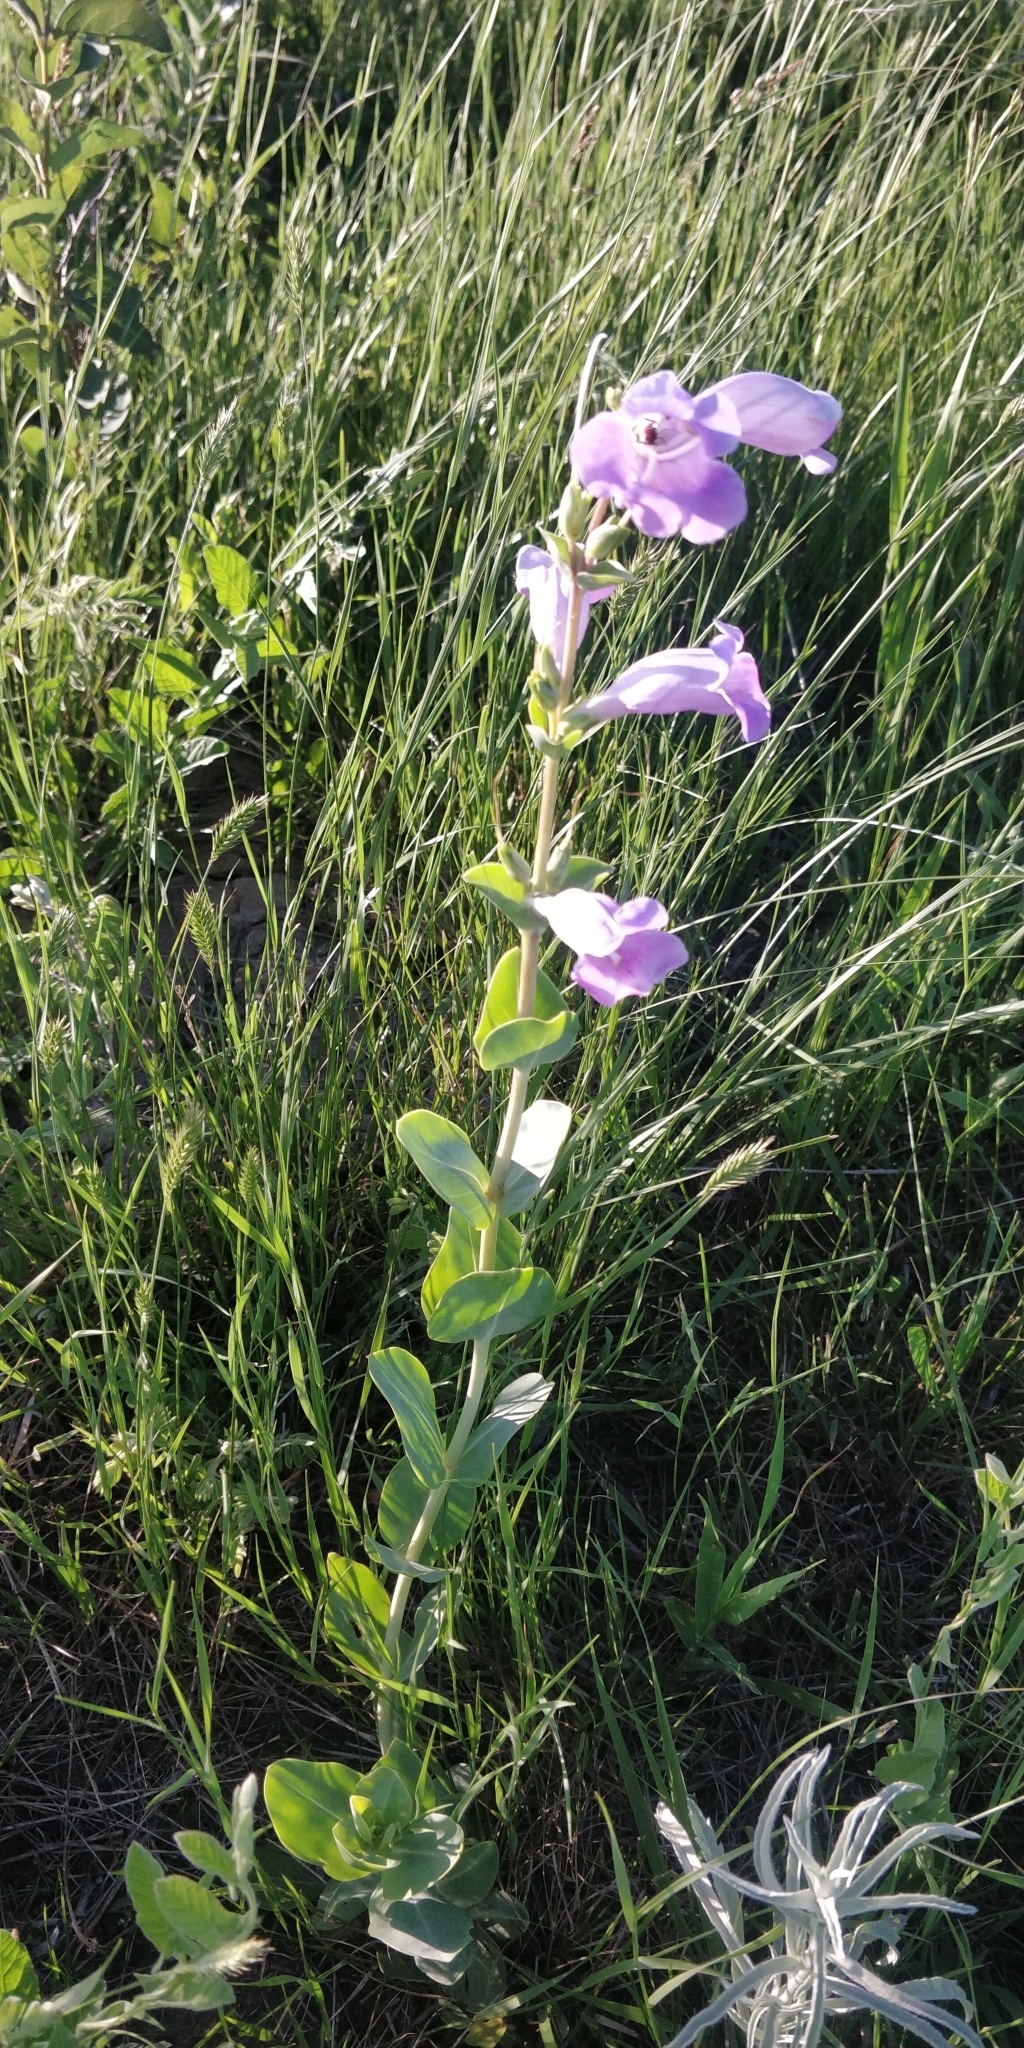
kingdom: Plantae
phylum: Tracheophyta
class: Magnoliopsida
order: Lamiales
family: Plantaginaceae
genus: Penstemon
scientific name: Penstemon
